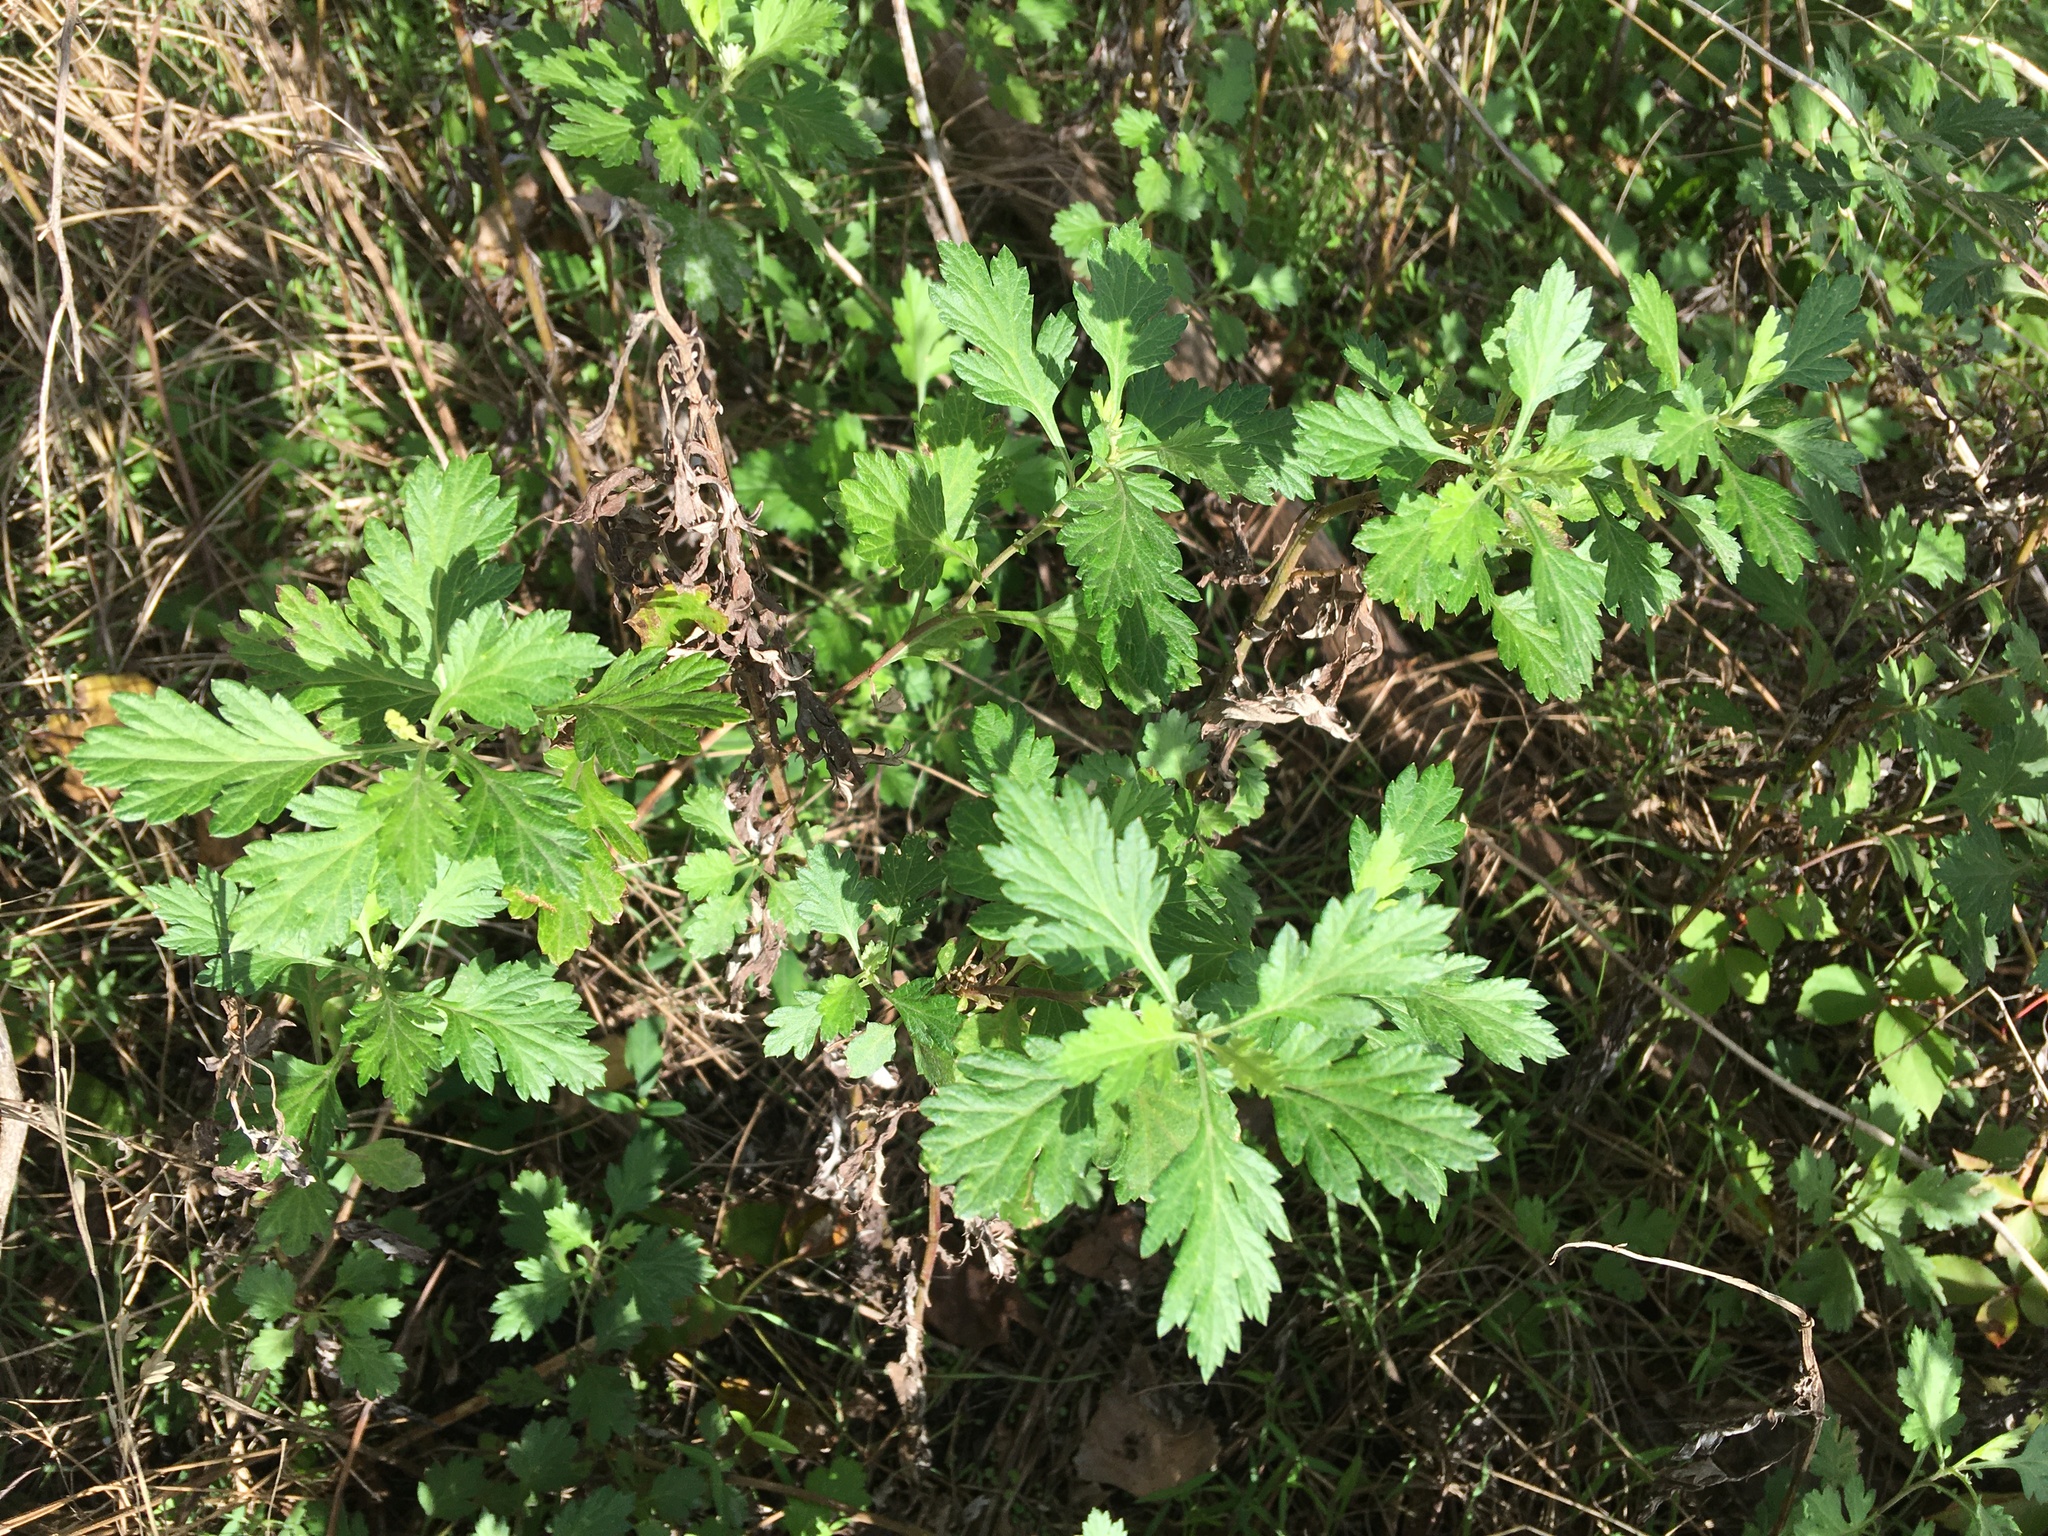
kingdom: Plantae
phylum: Tracheophyta
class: Magnoliopsida
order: Asterales
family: Asteraceae
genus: Artemisia
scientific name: Artemisia vulgaris
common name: Mugwort
